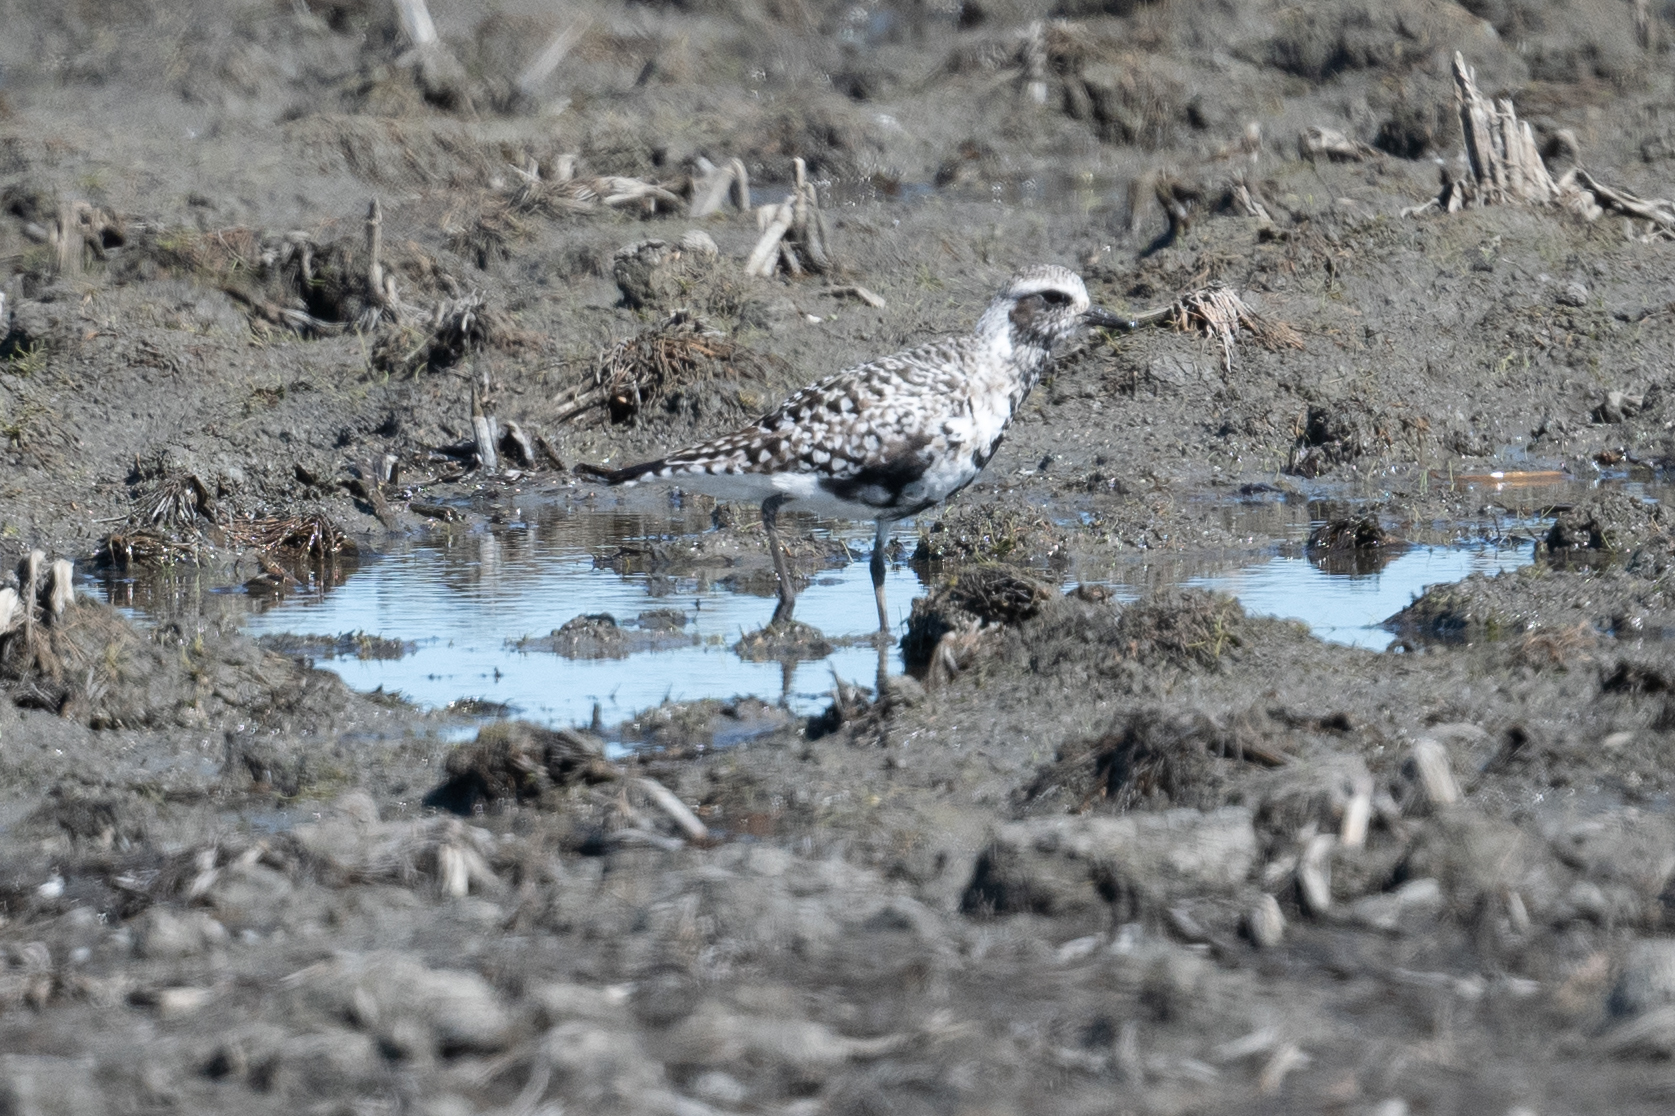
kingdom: Animalia
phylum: Chordata
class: Aves
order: Charadriiformes
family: Charadriidae
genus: Pluvialis
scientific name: Pluvialis squatarola
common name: Grey plover
